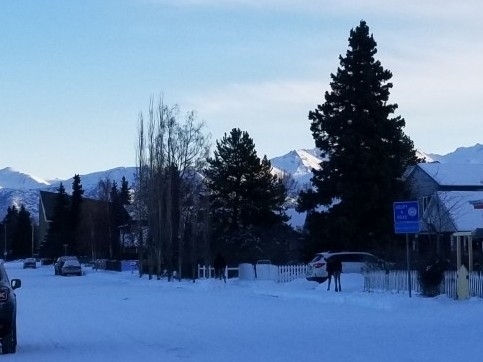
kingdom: Animalia
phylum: Chordata
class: Mammalia
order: Artiodactyla
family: Cervidae
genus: Alces
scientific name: Alces alces
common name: Moose
